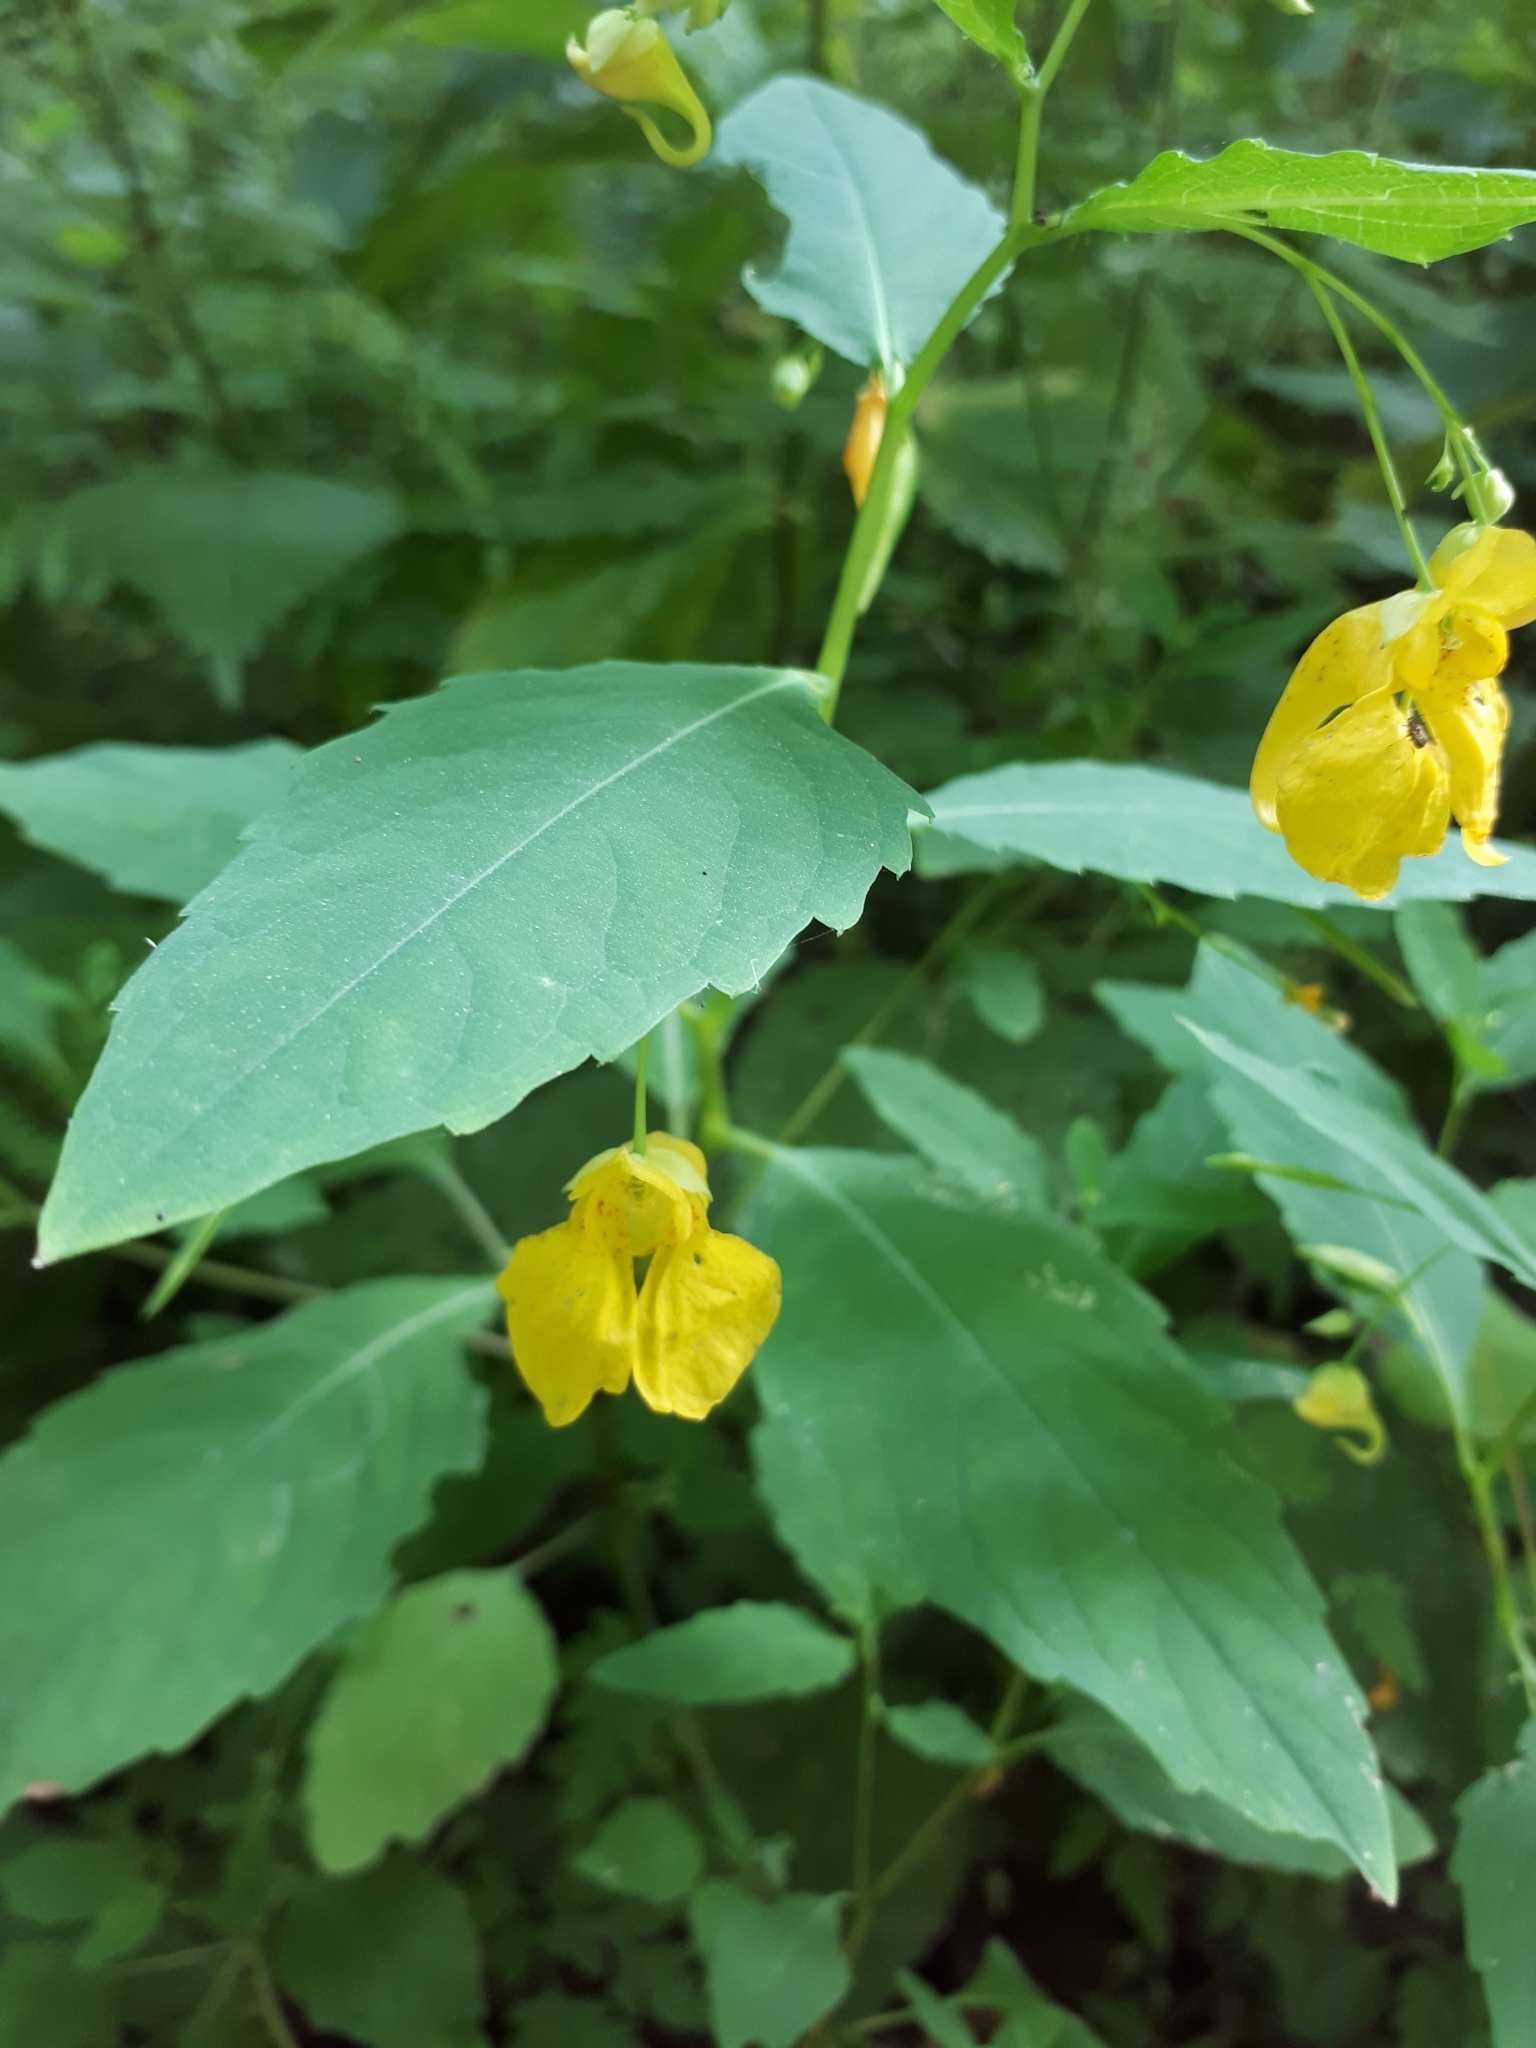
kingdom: Plantae
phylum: Tracheophyta
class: Magnoliopsida
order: Ericales
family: Balsaminaceae
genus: Impatiens
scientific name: Impatiens noli-tangere
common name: Touch-me-not balsam
